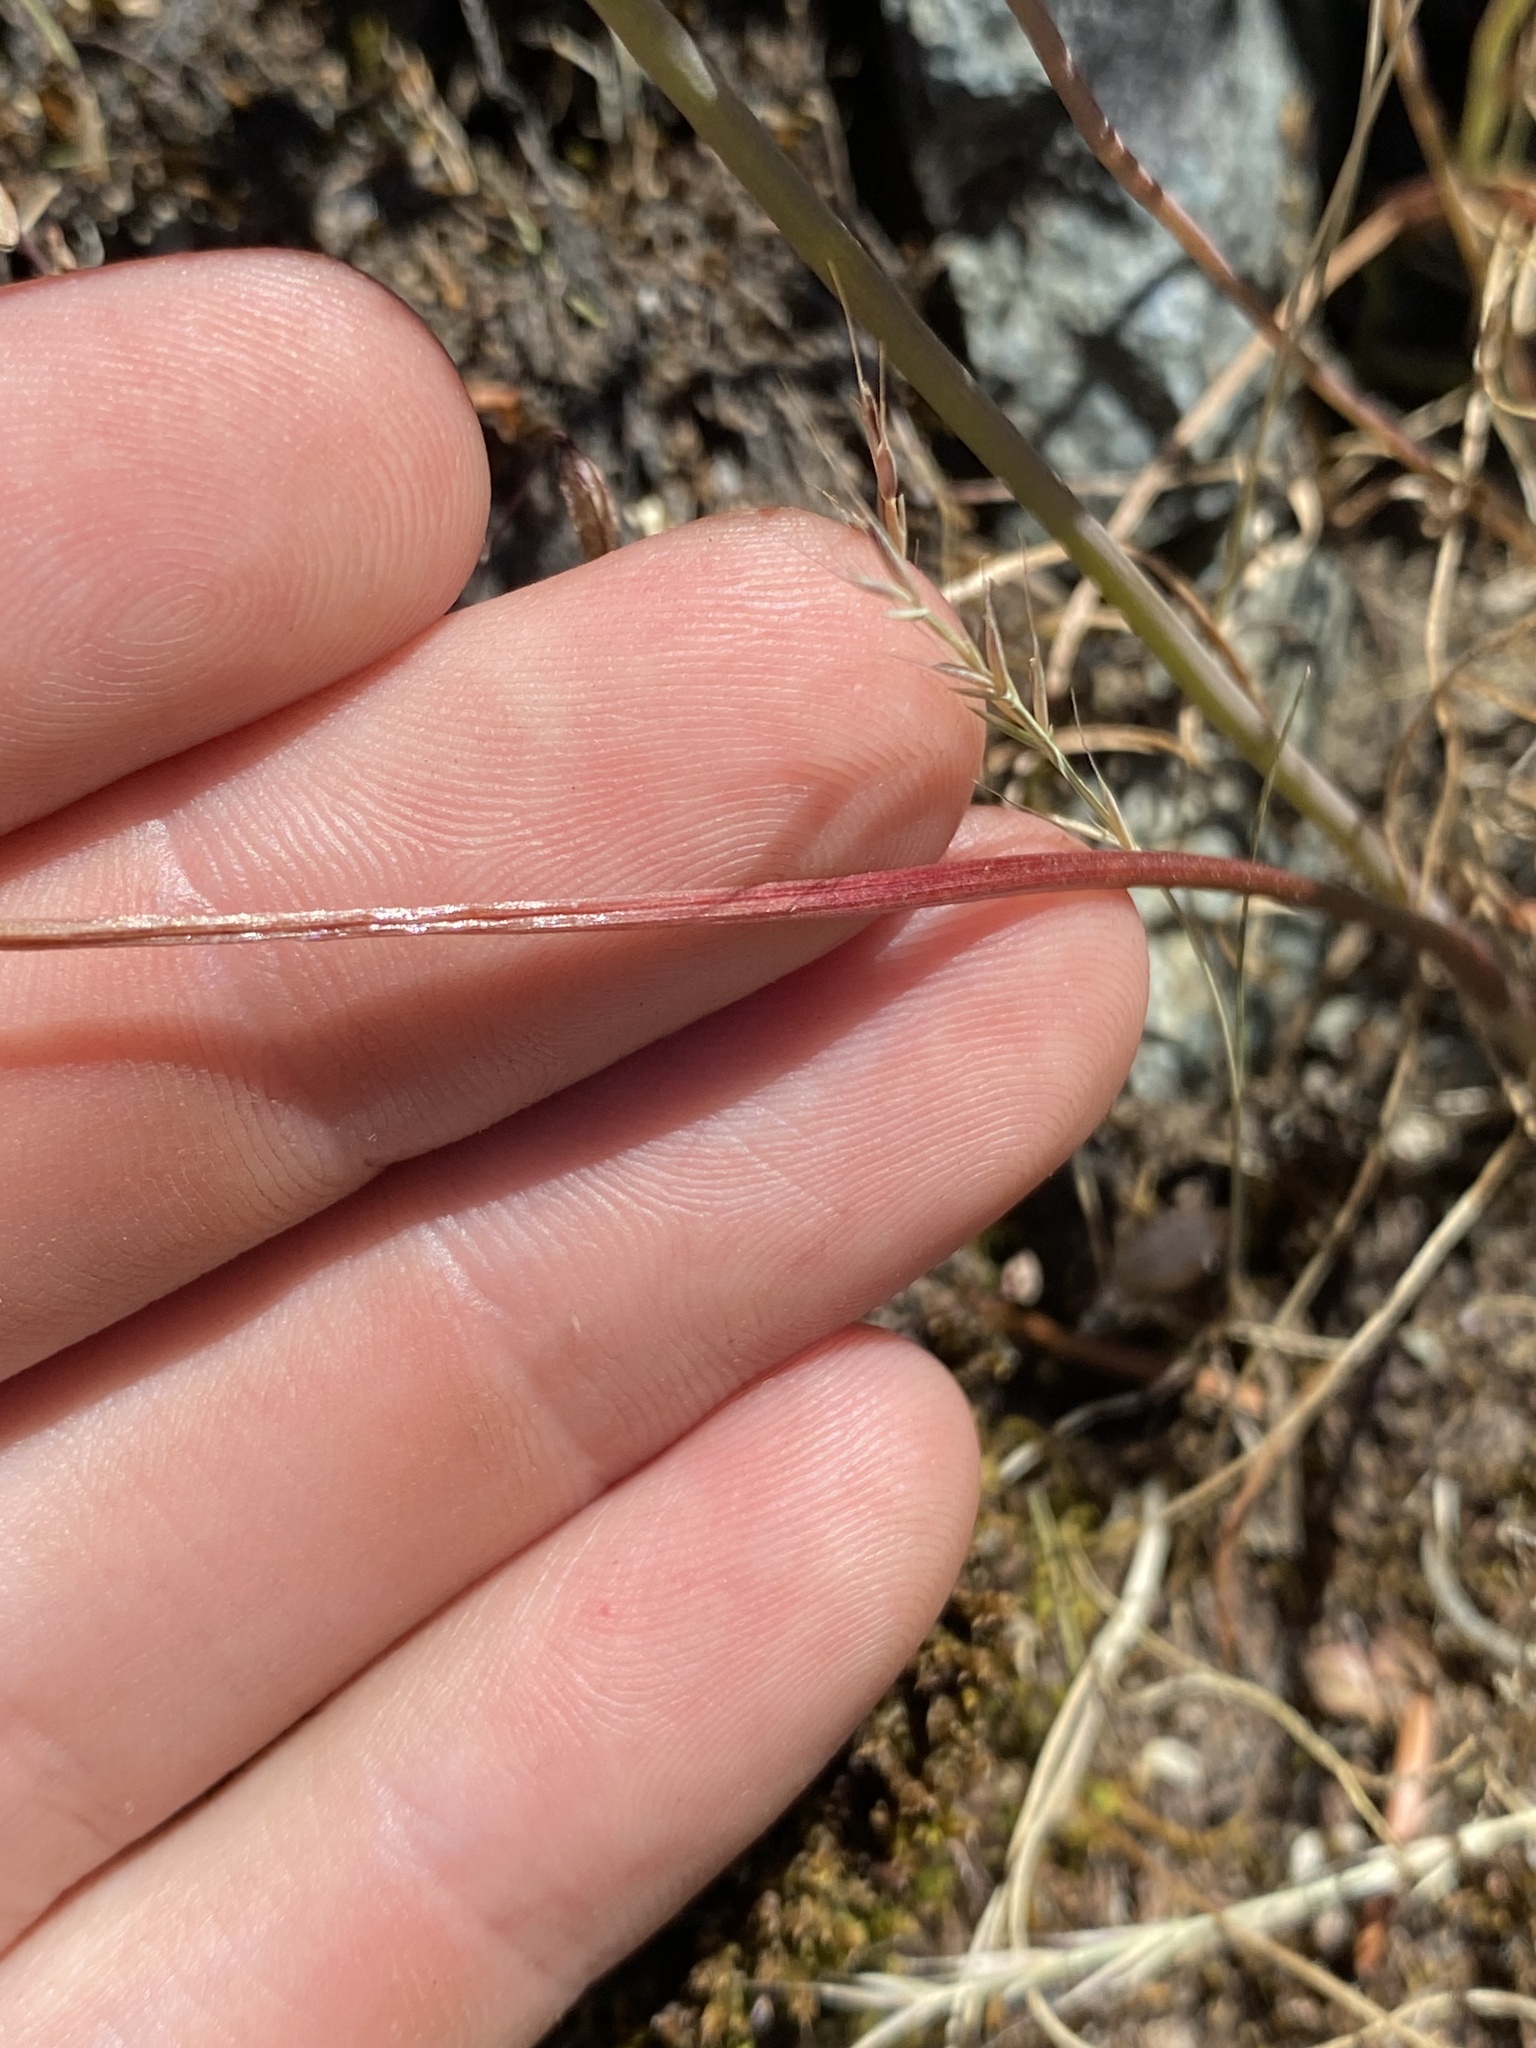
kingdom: Plantae
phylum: Tracheophyta
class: Liliopsida
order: Asparagales
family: Amaryllidaceae
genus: Allium
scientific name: Allium amplectens
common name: Narrow-leaved onion
